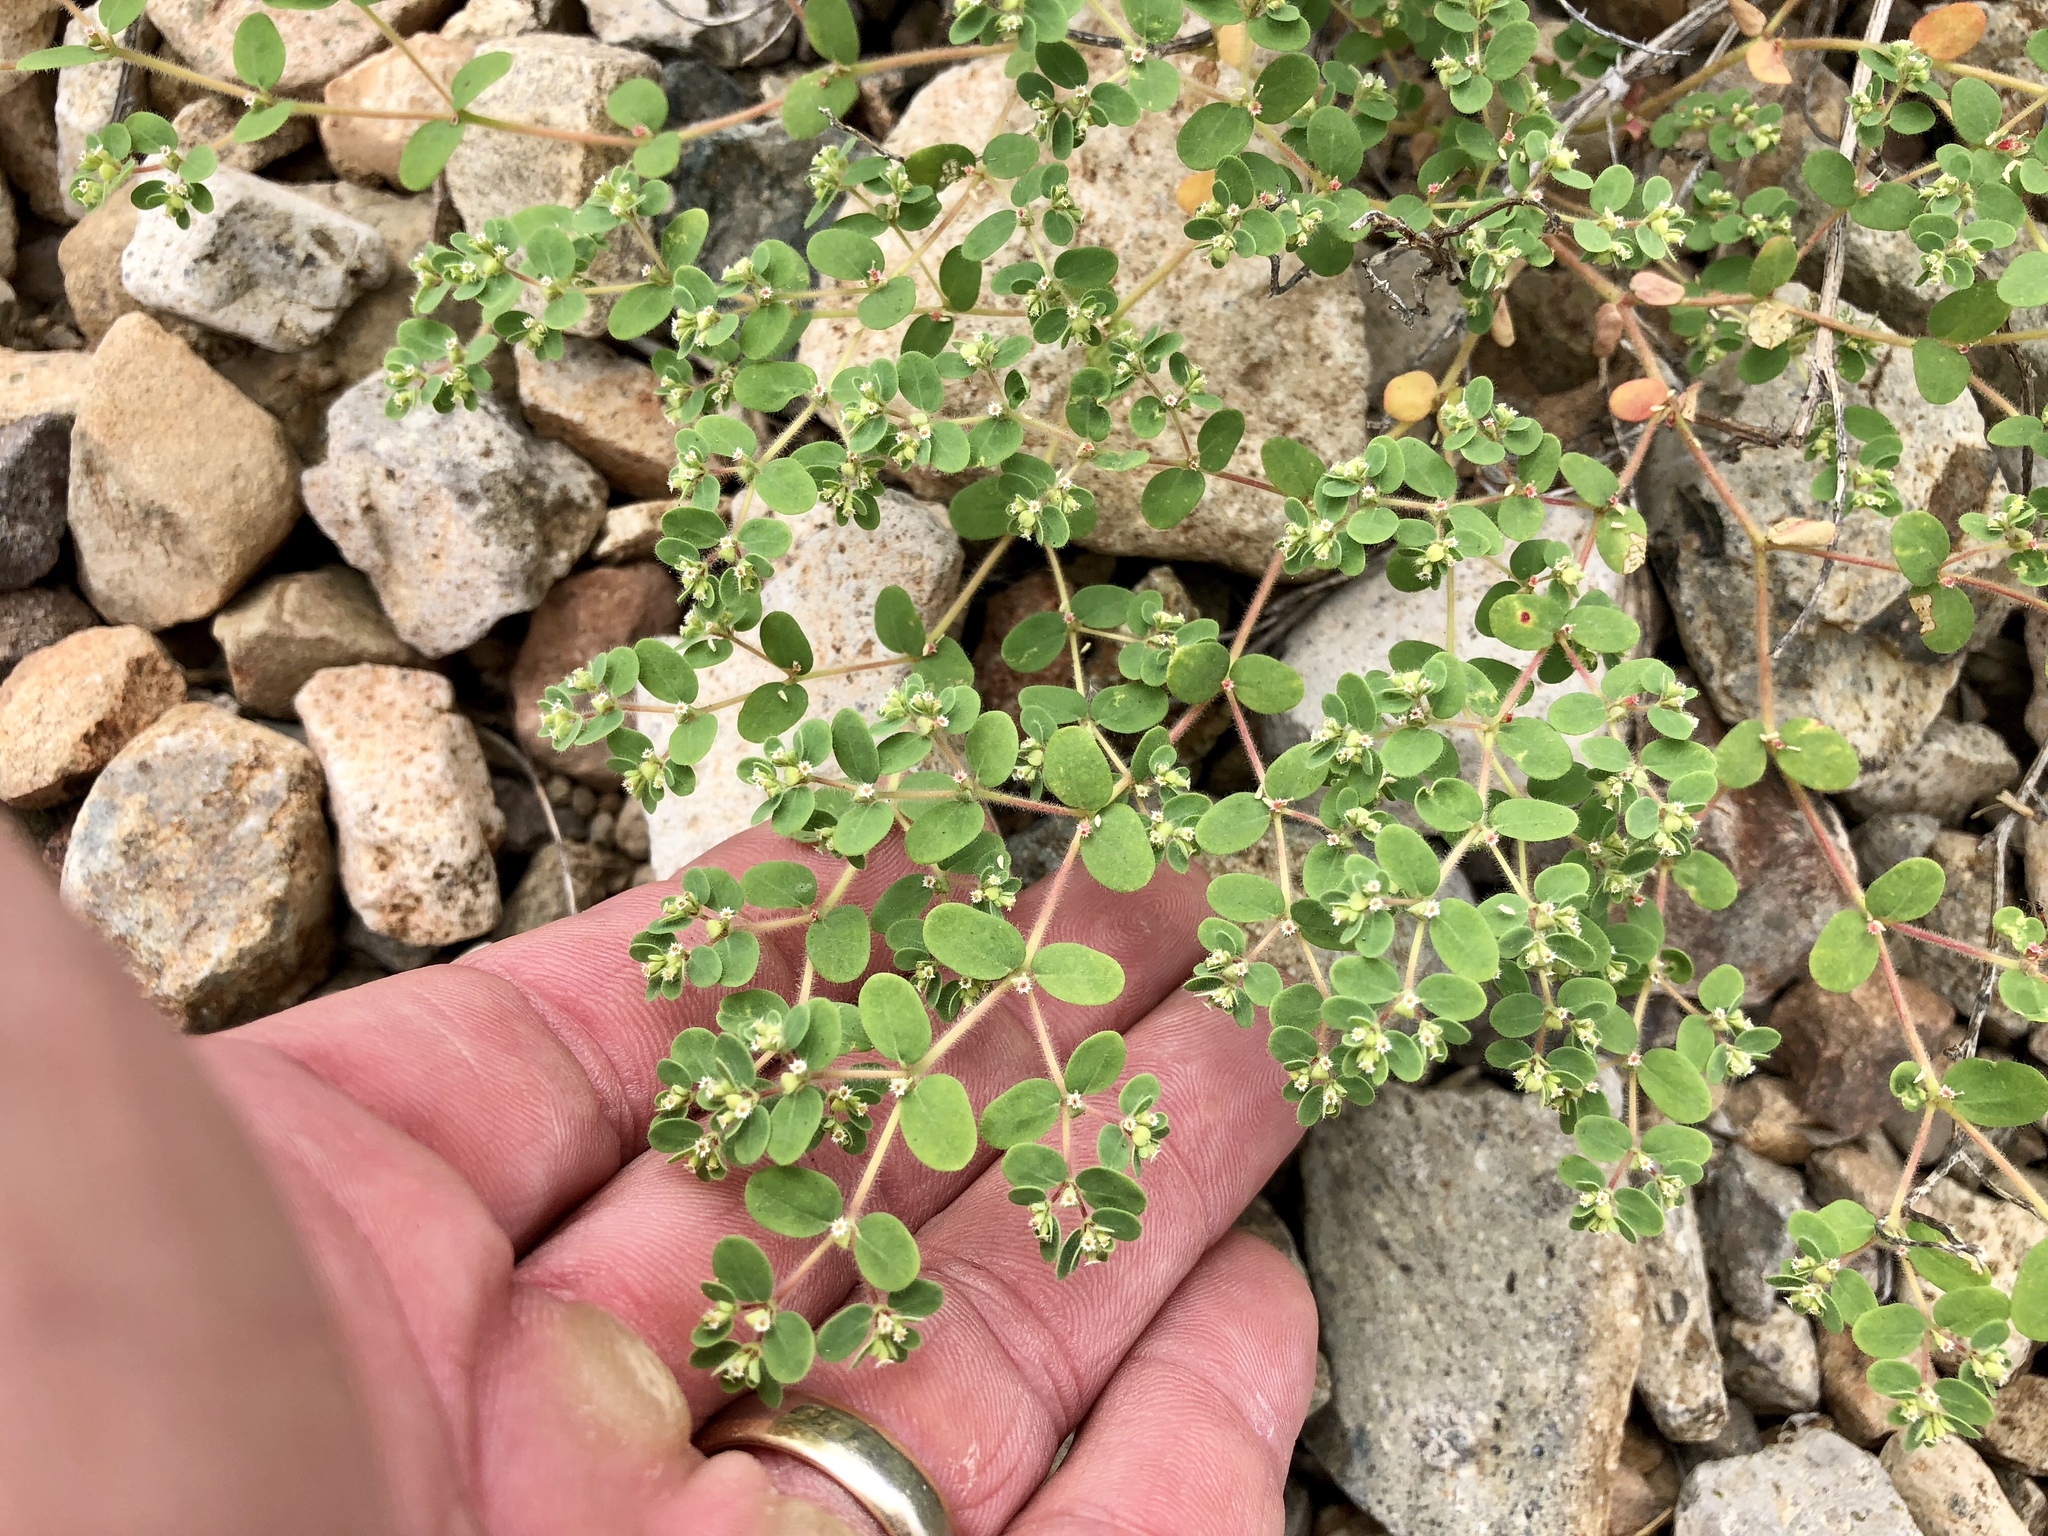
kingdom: Plantae
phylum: Tracheophyta
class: Magnoliopsida
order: Malpighiales
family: Euphorbiaceae
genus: Euphorbia
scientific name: Euphorbia setiloba
